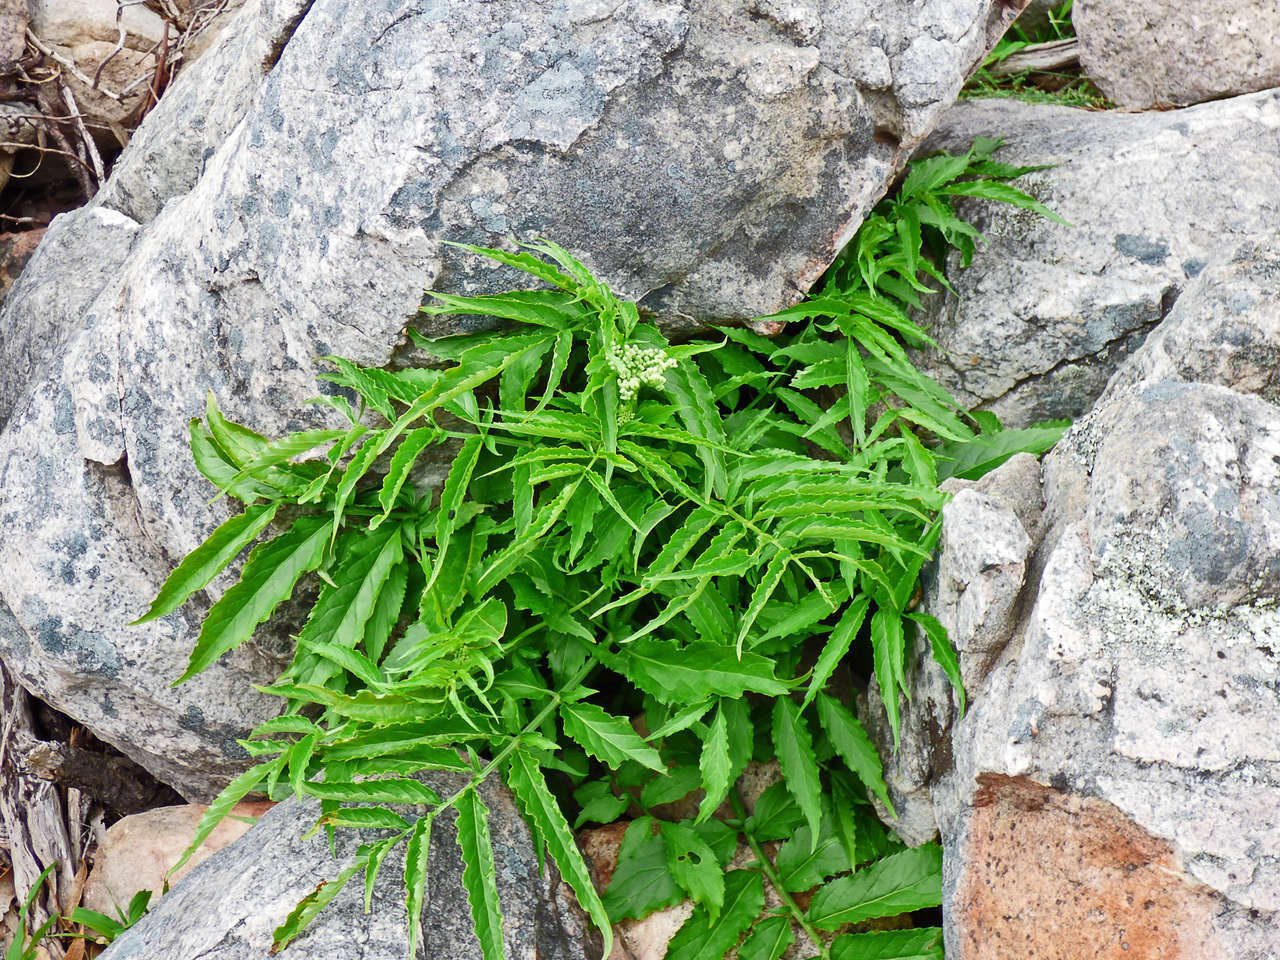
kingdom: Plantae
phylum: Tracheophyta
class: Magnoliopsida
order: Dipsacales
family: Viburnaceae
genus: Sambucus
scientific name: Sambucus gaudichaudiana
